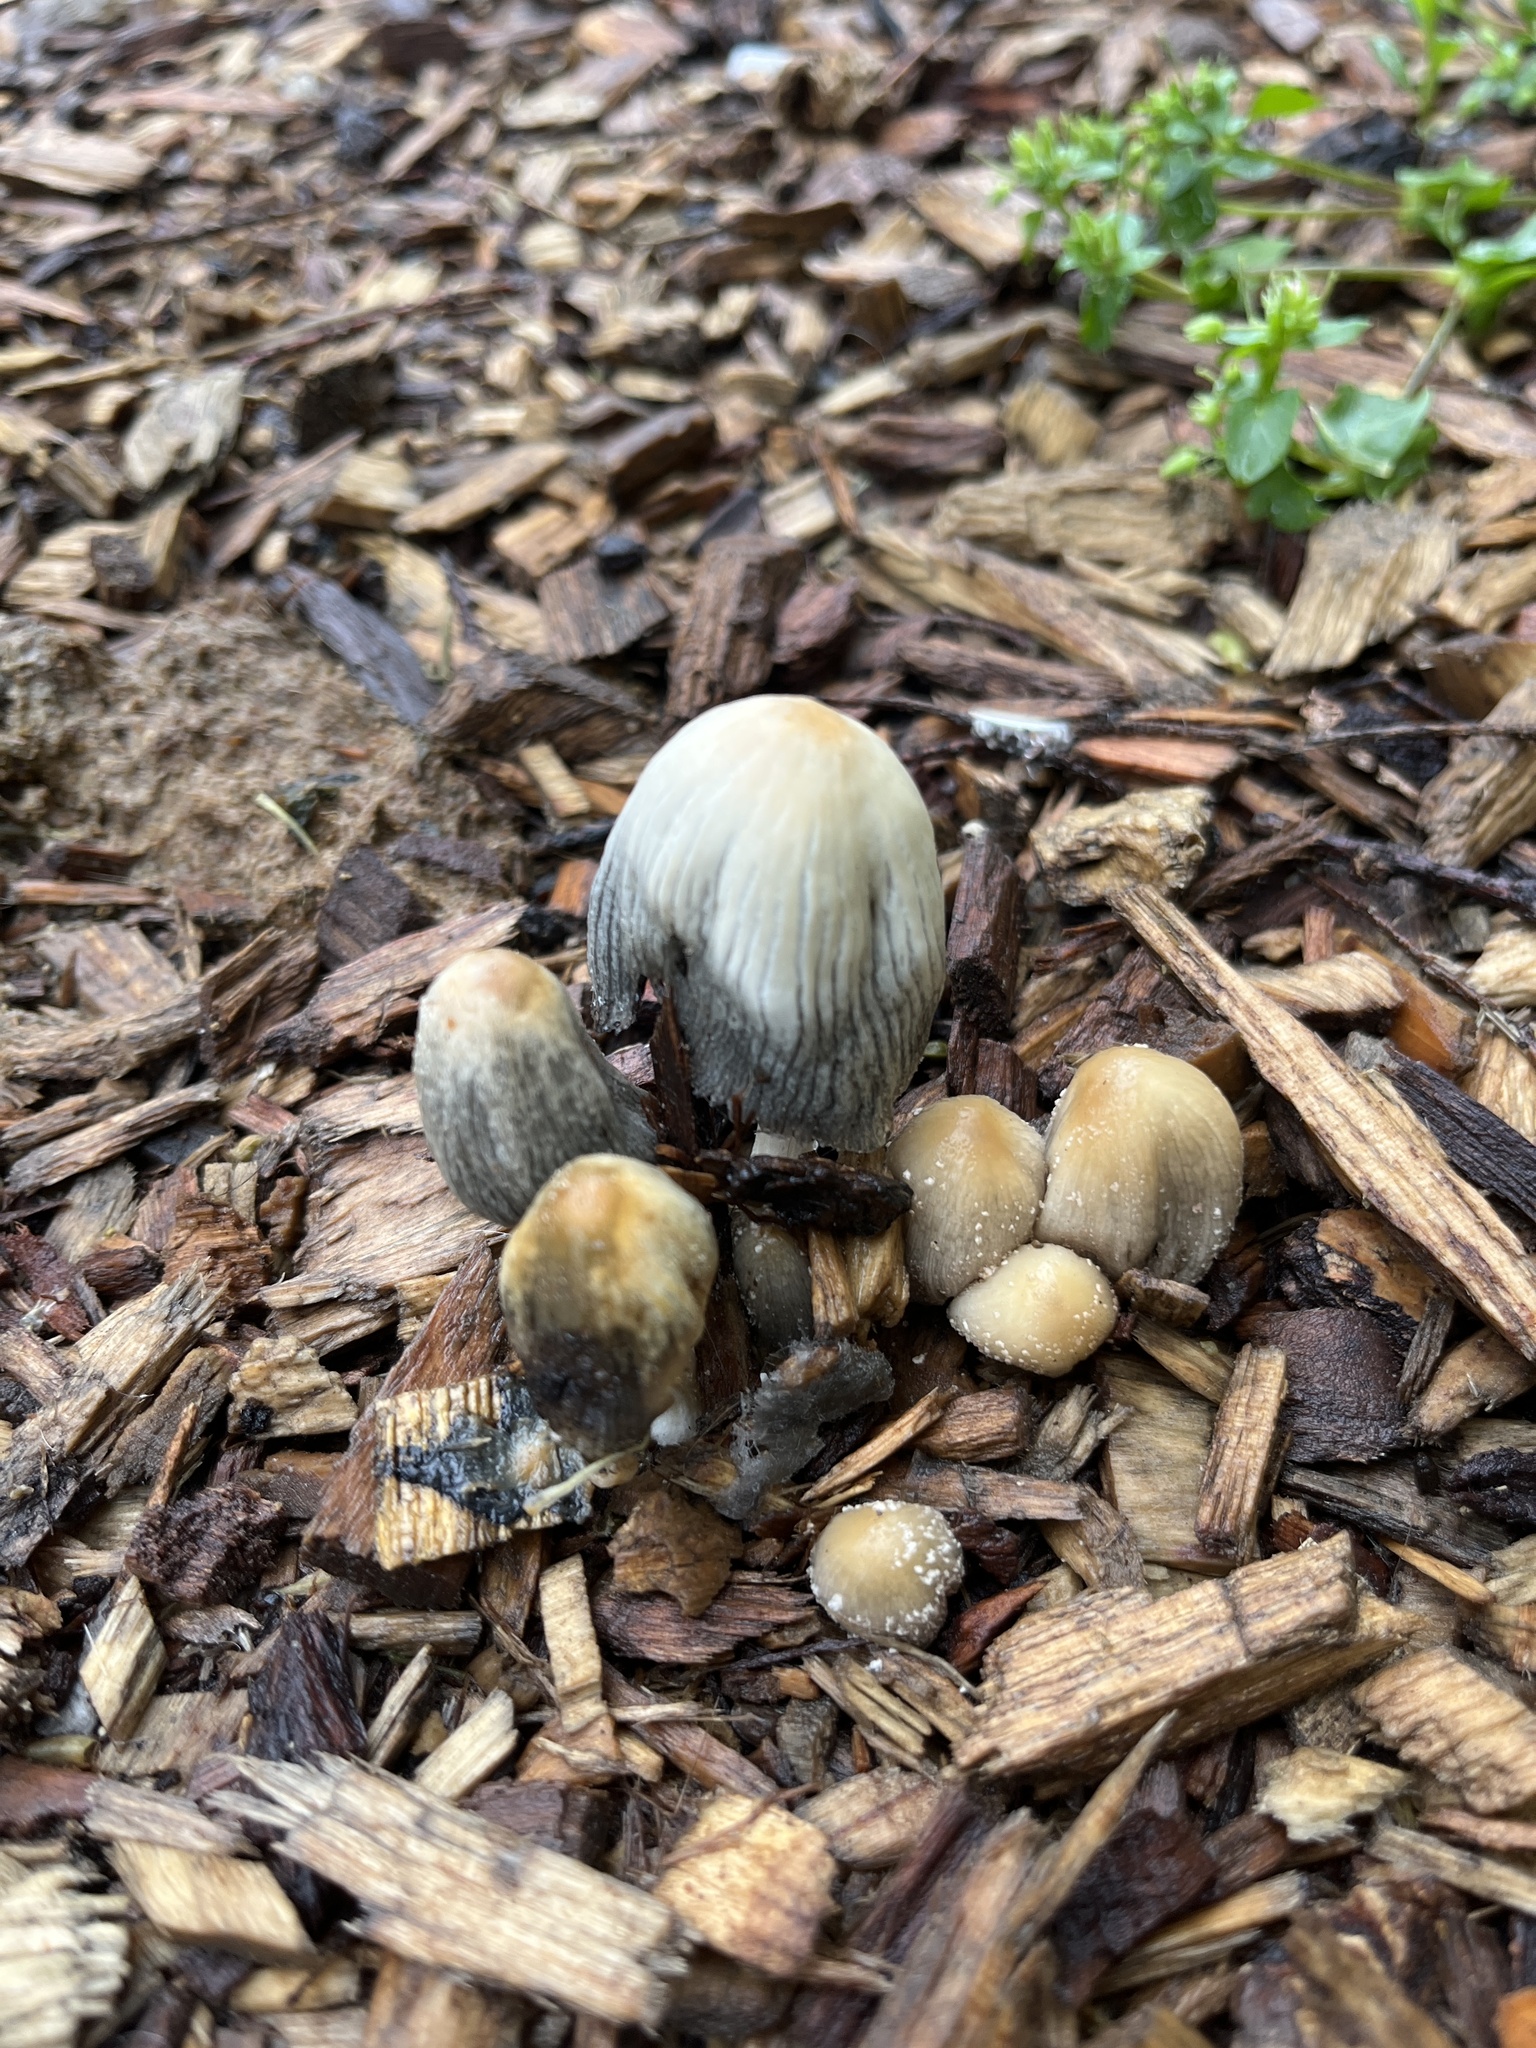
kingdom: Fungi
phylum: Basidiomycota
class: Agaricomycetes
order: Agaricales
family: Psathyrellaceae
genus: Coprinellus
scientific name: Coprinellus micaceus
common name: Glistening ink-cap
